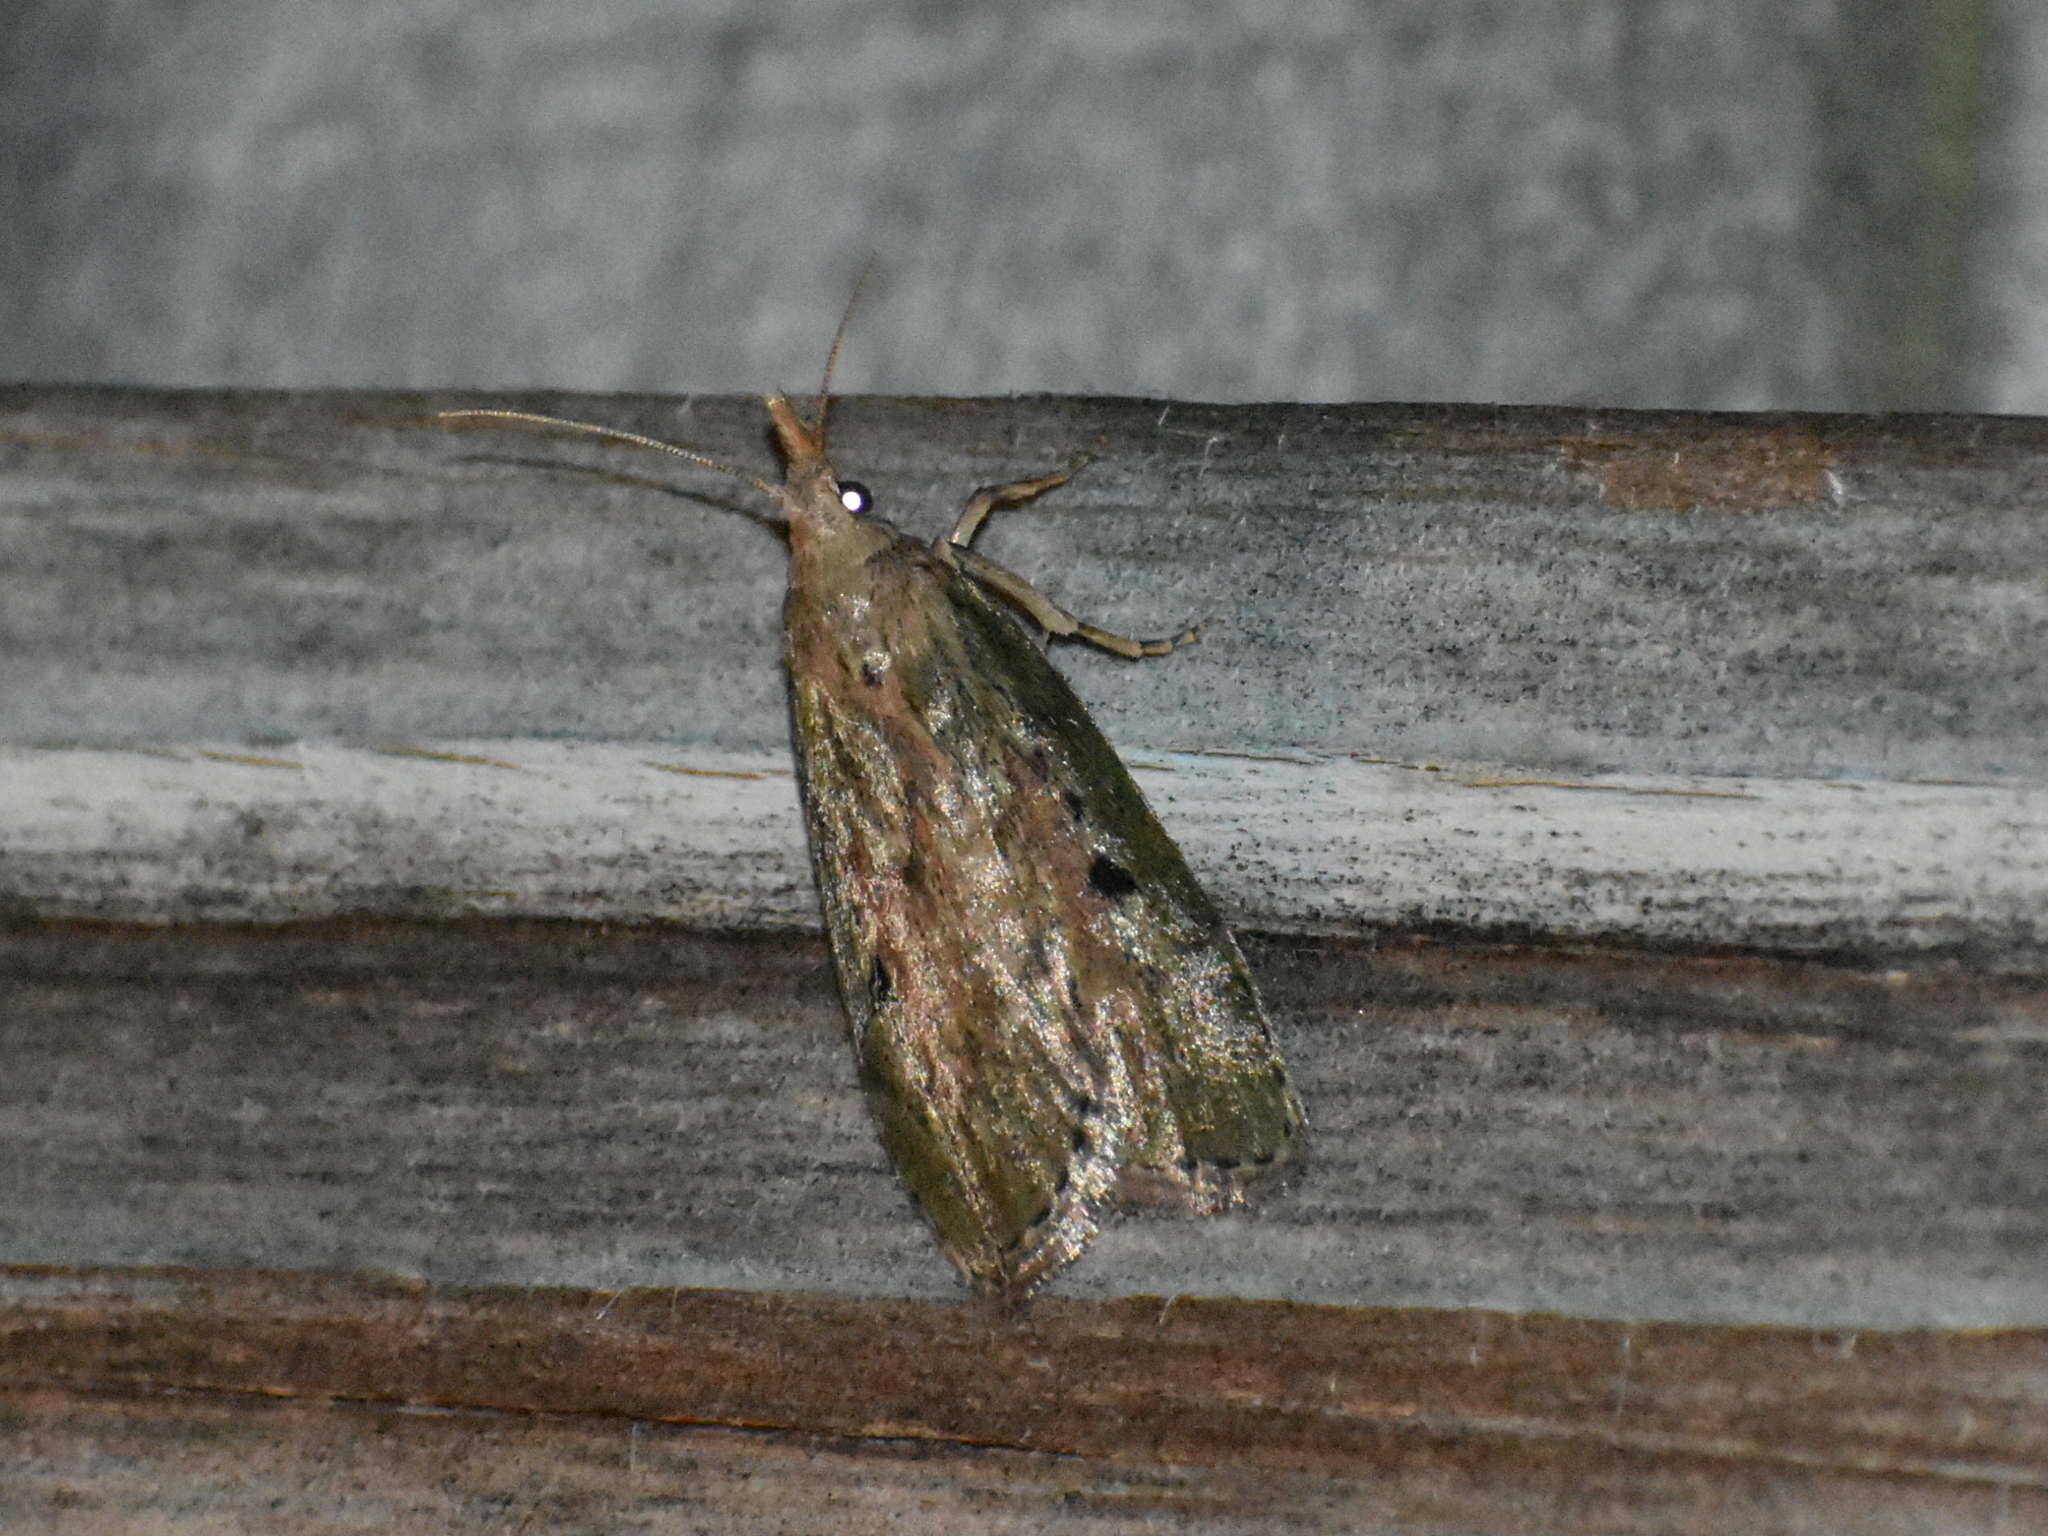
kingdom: Animalia
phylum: Arthropoda
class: Insecta
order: Lepidoptera
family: Pyralidae
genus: Aphomia
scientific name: Aphomia sociella
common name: Bee moth
